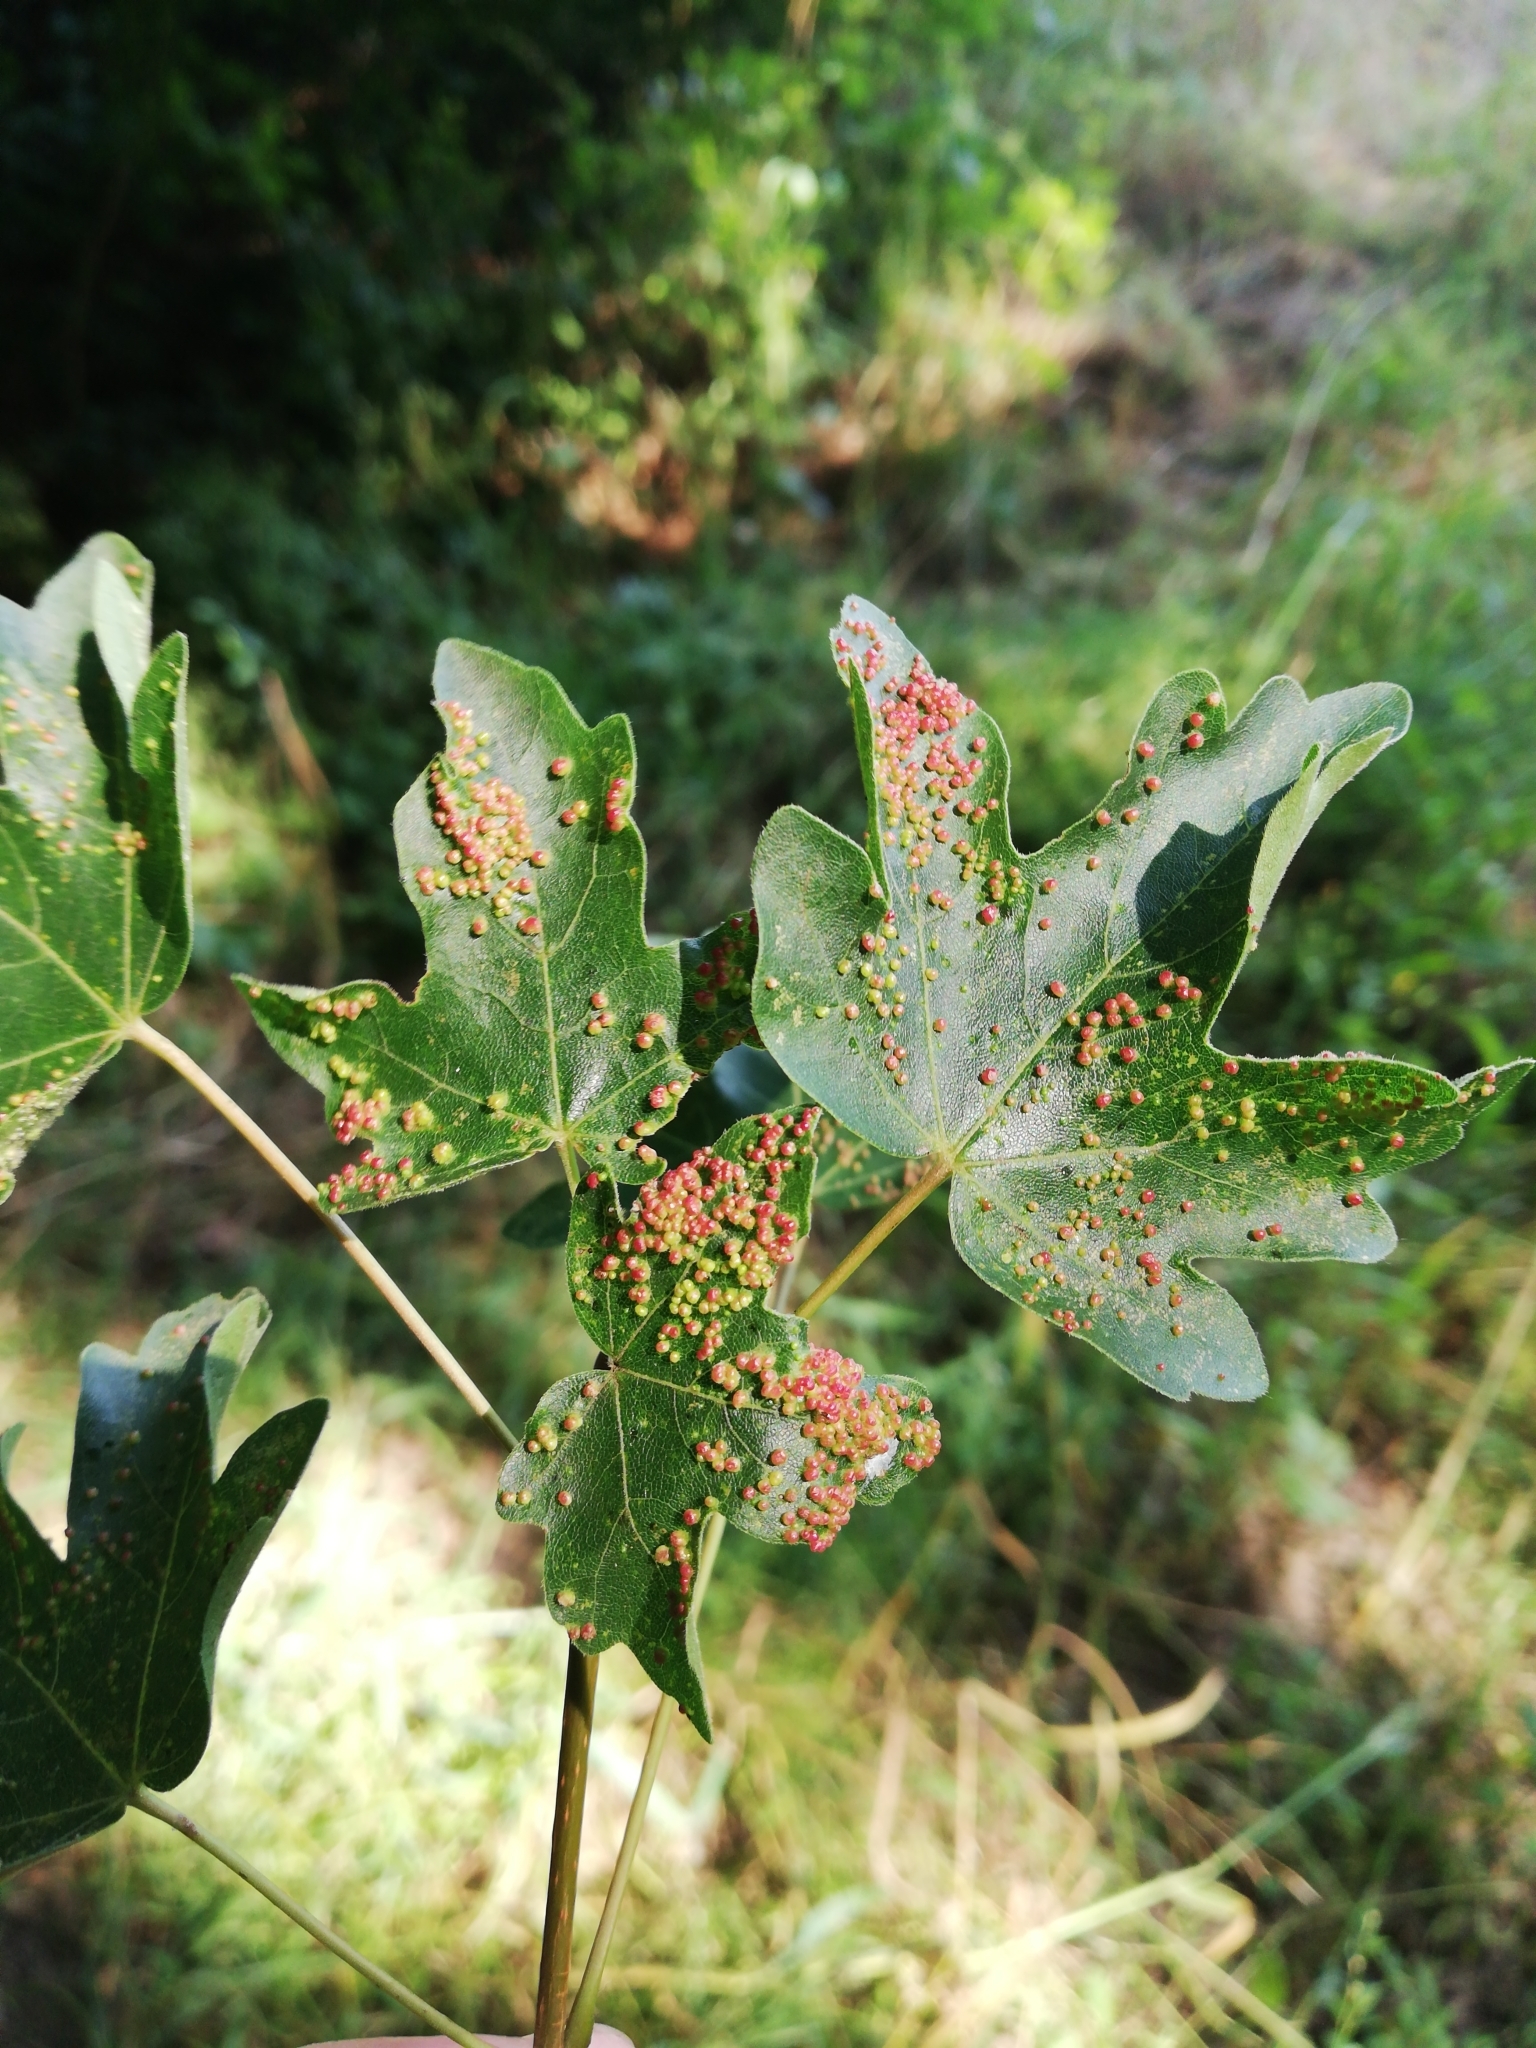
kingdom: Animalia
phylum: Arthropoda
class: Arachnida
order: Trombidiformes
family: Eriophyidae
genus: Aceria
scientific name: Aceria myriadeum
